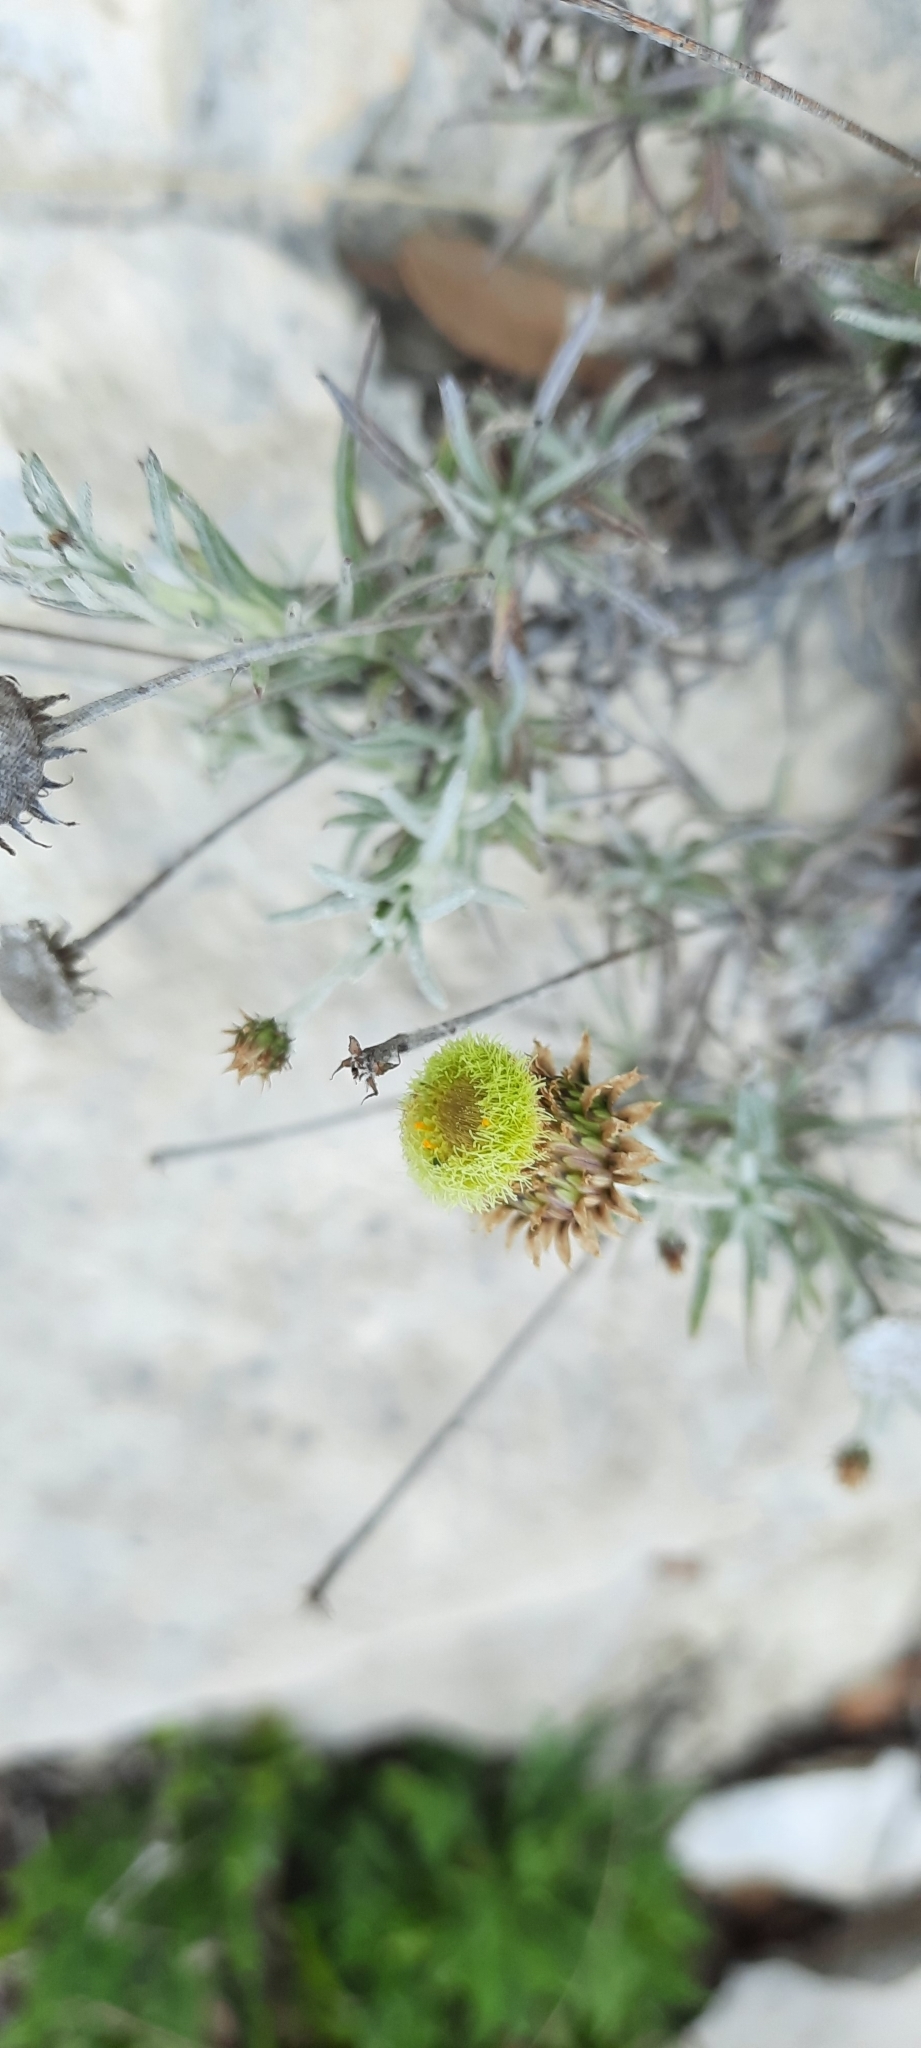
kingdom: Plantae
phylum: Tracheophyta
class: Magnoliopsida
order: Asterales
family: Asteraceae
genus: Phagnalon
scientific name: Phagnalon saxatile
